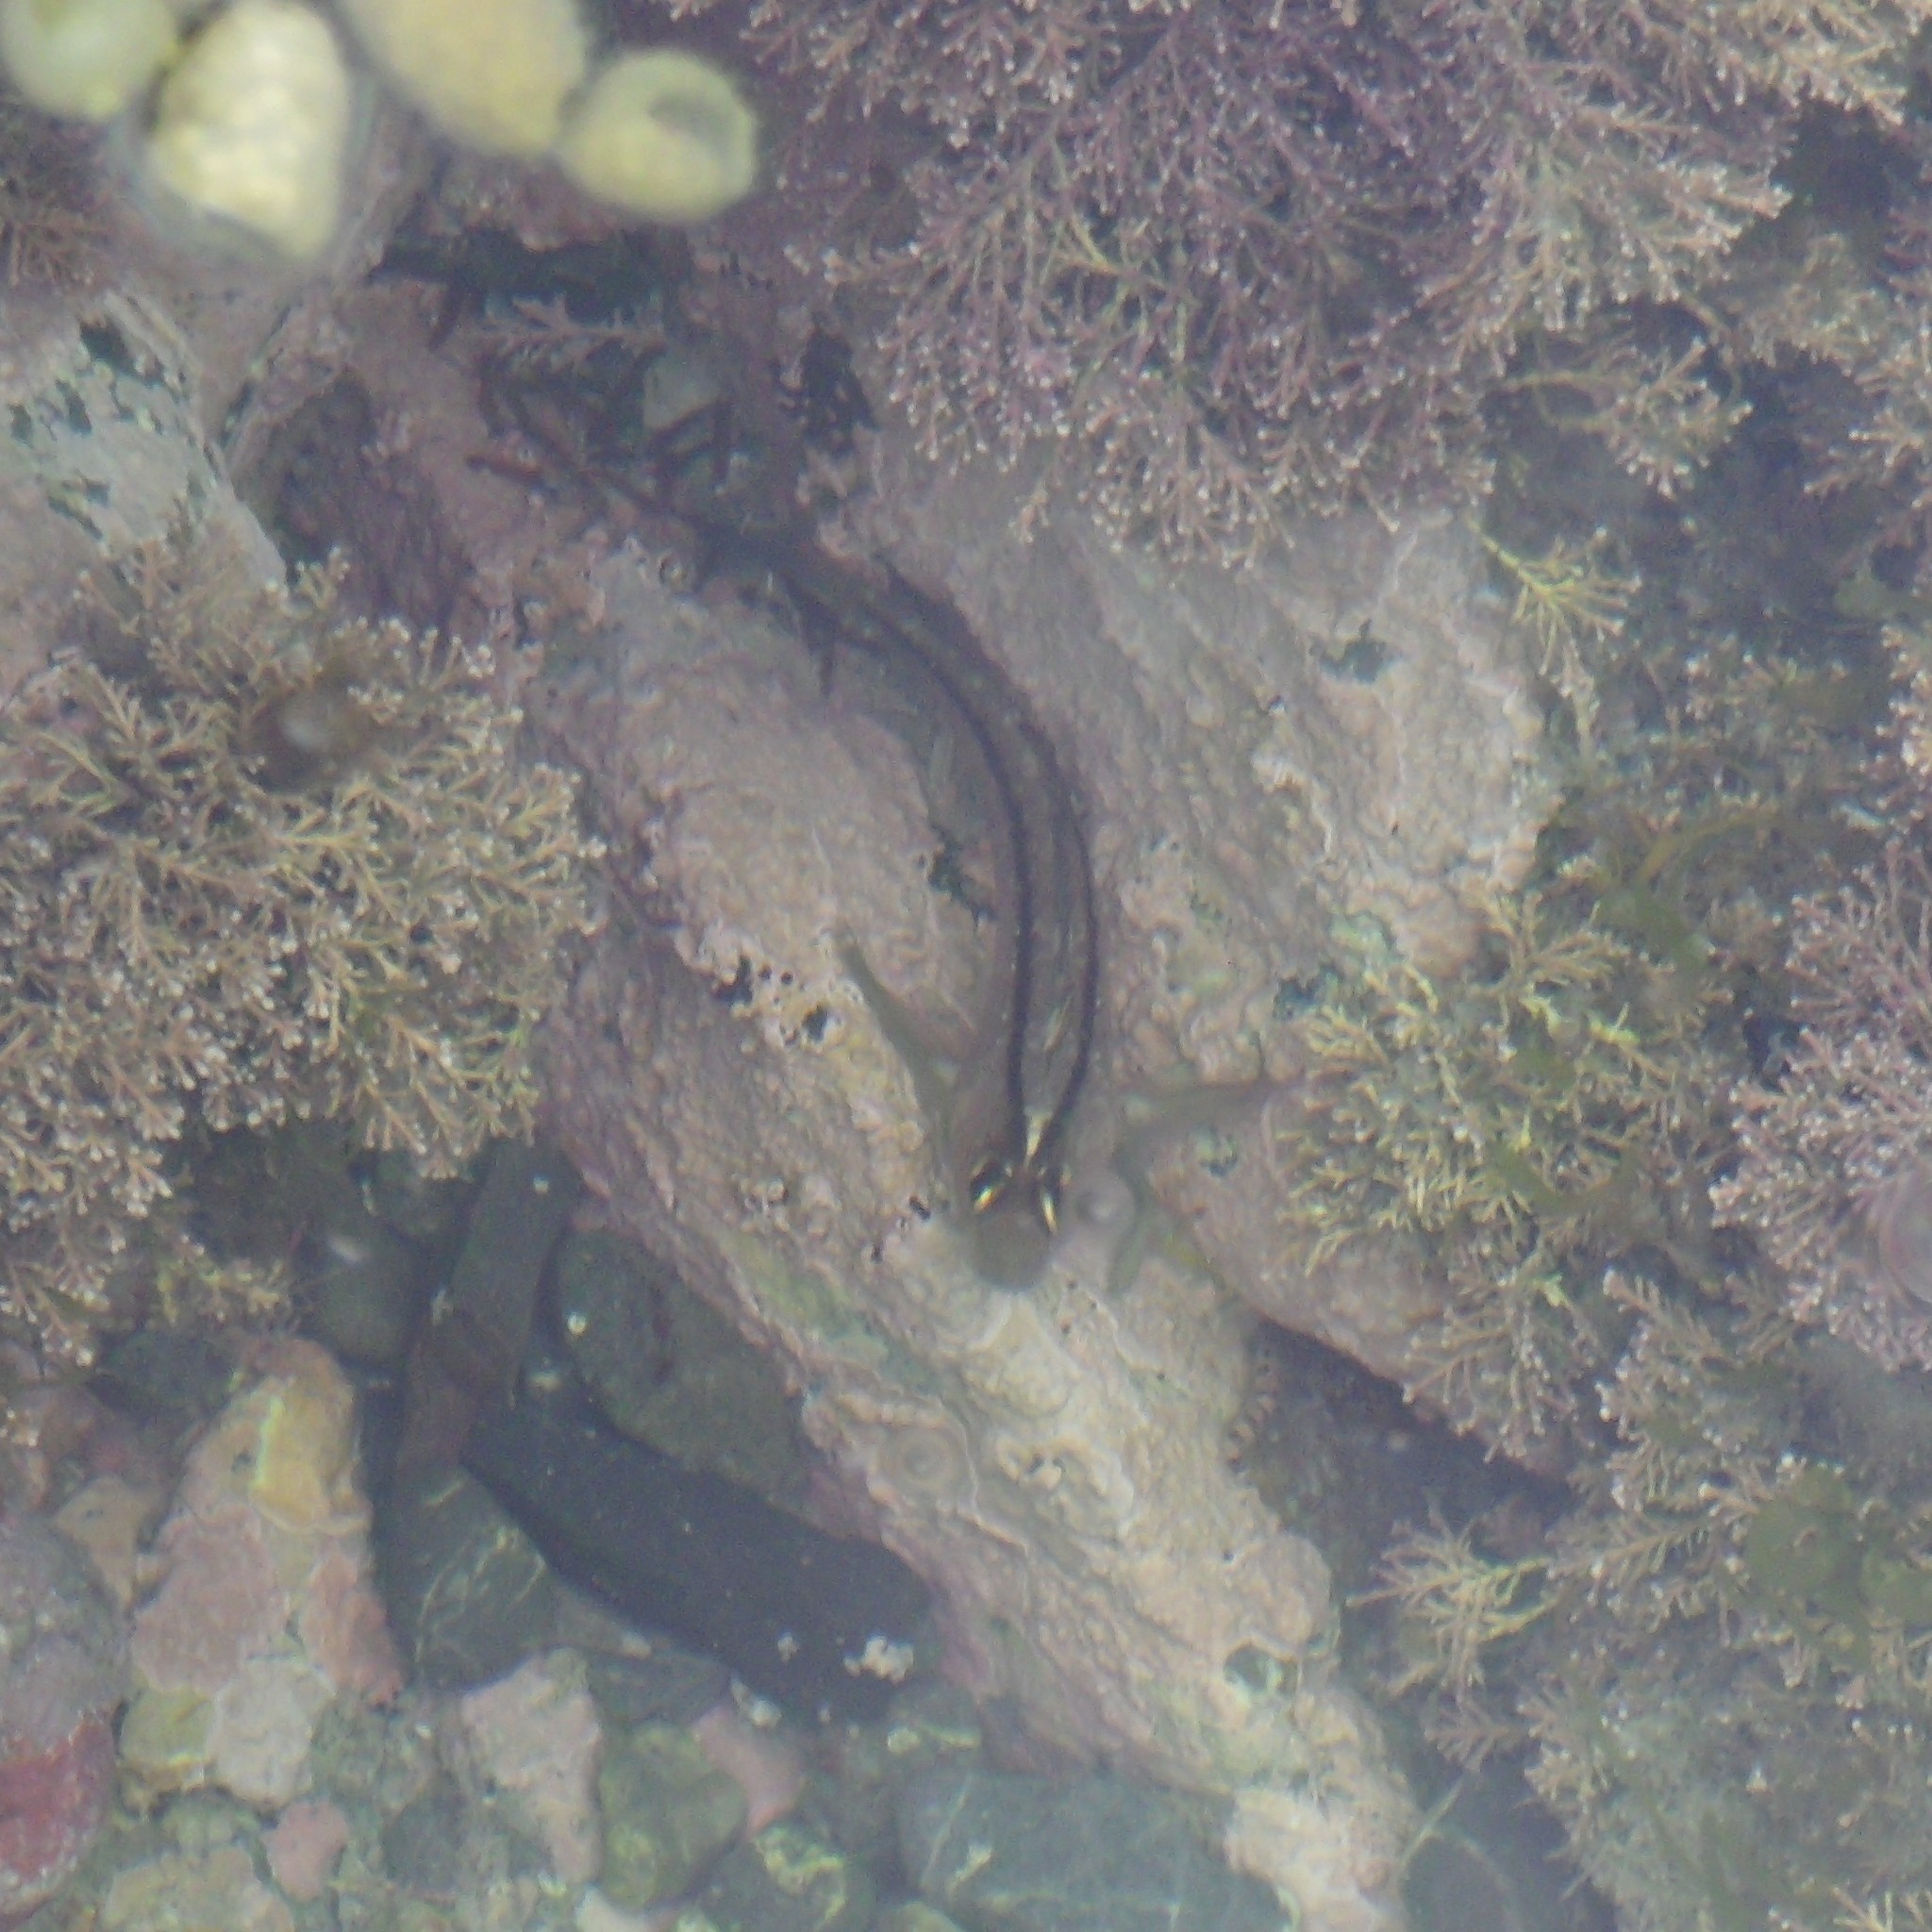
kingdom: Animalia
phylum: Chordata
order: Perciformes
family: Tripterygiidae
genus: Forsterygion
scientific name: Forsterygion lapillum
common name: Common triplefin
